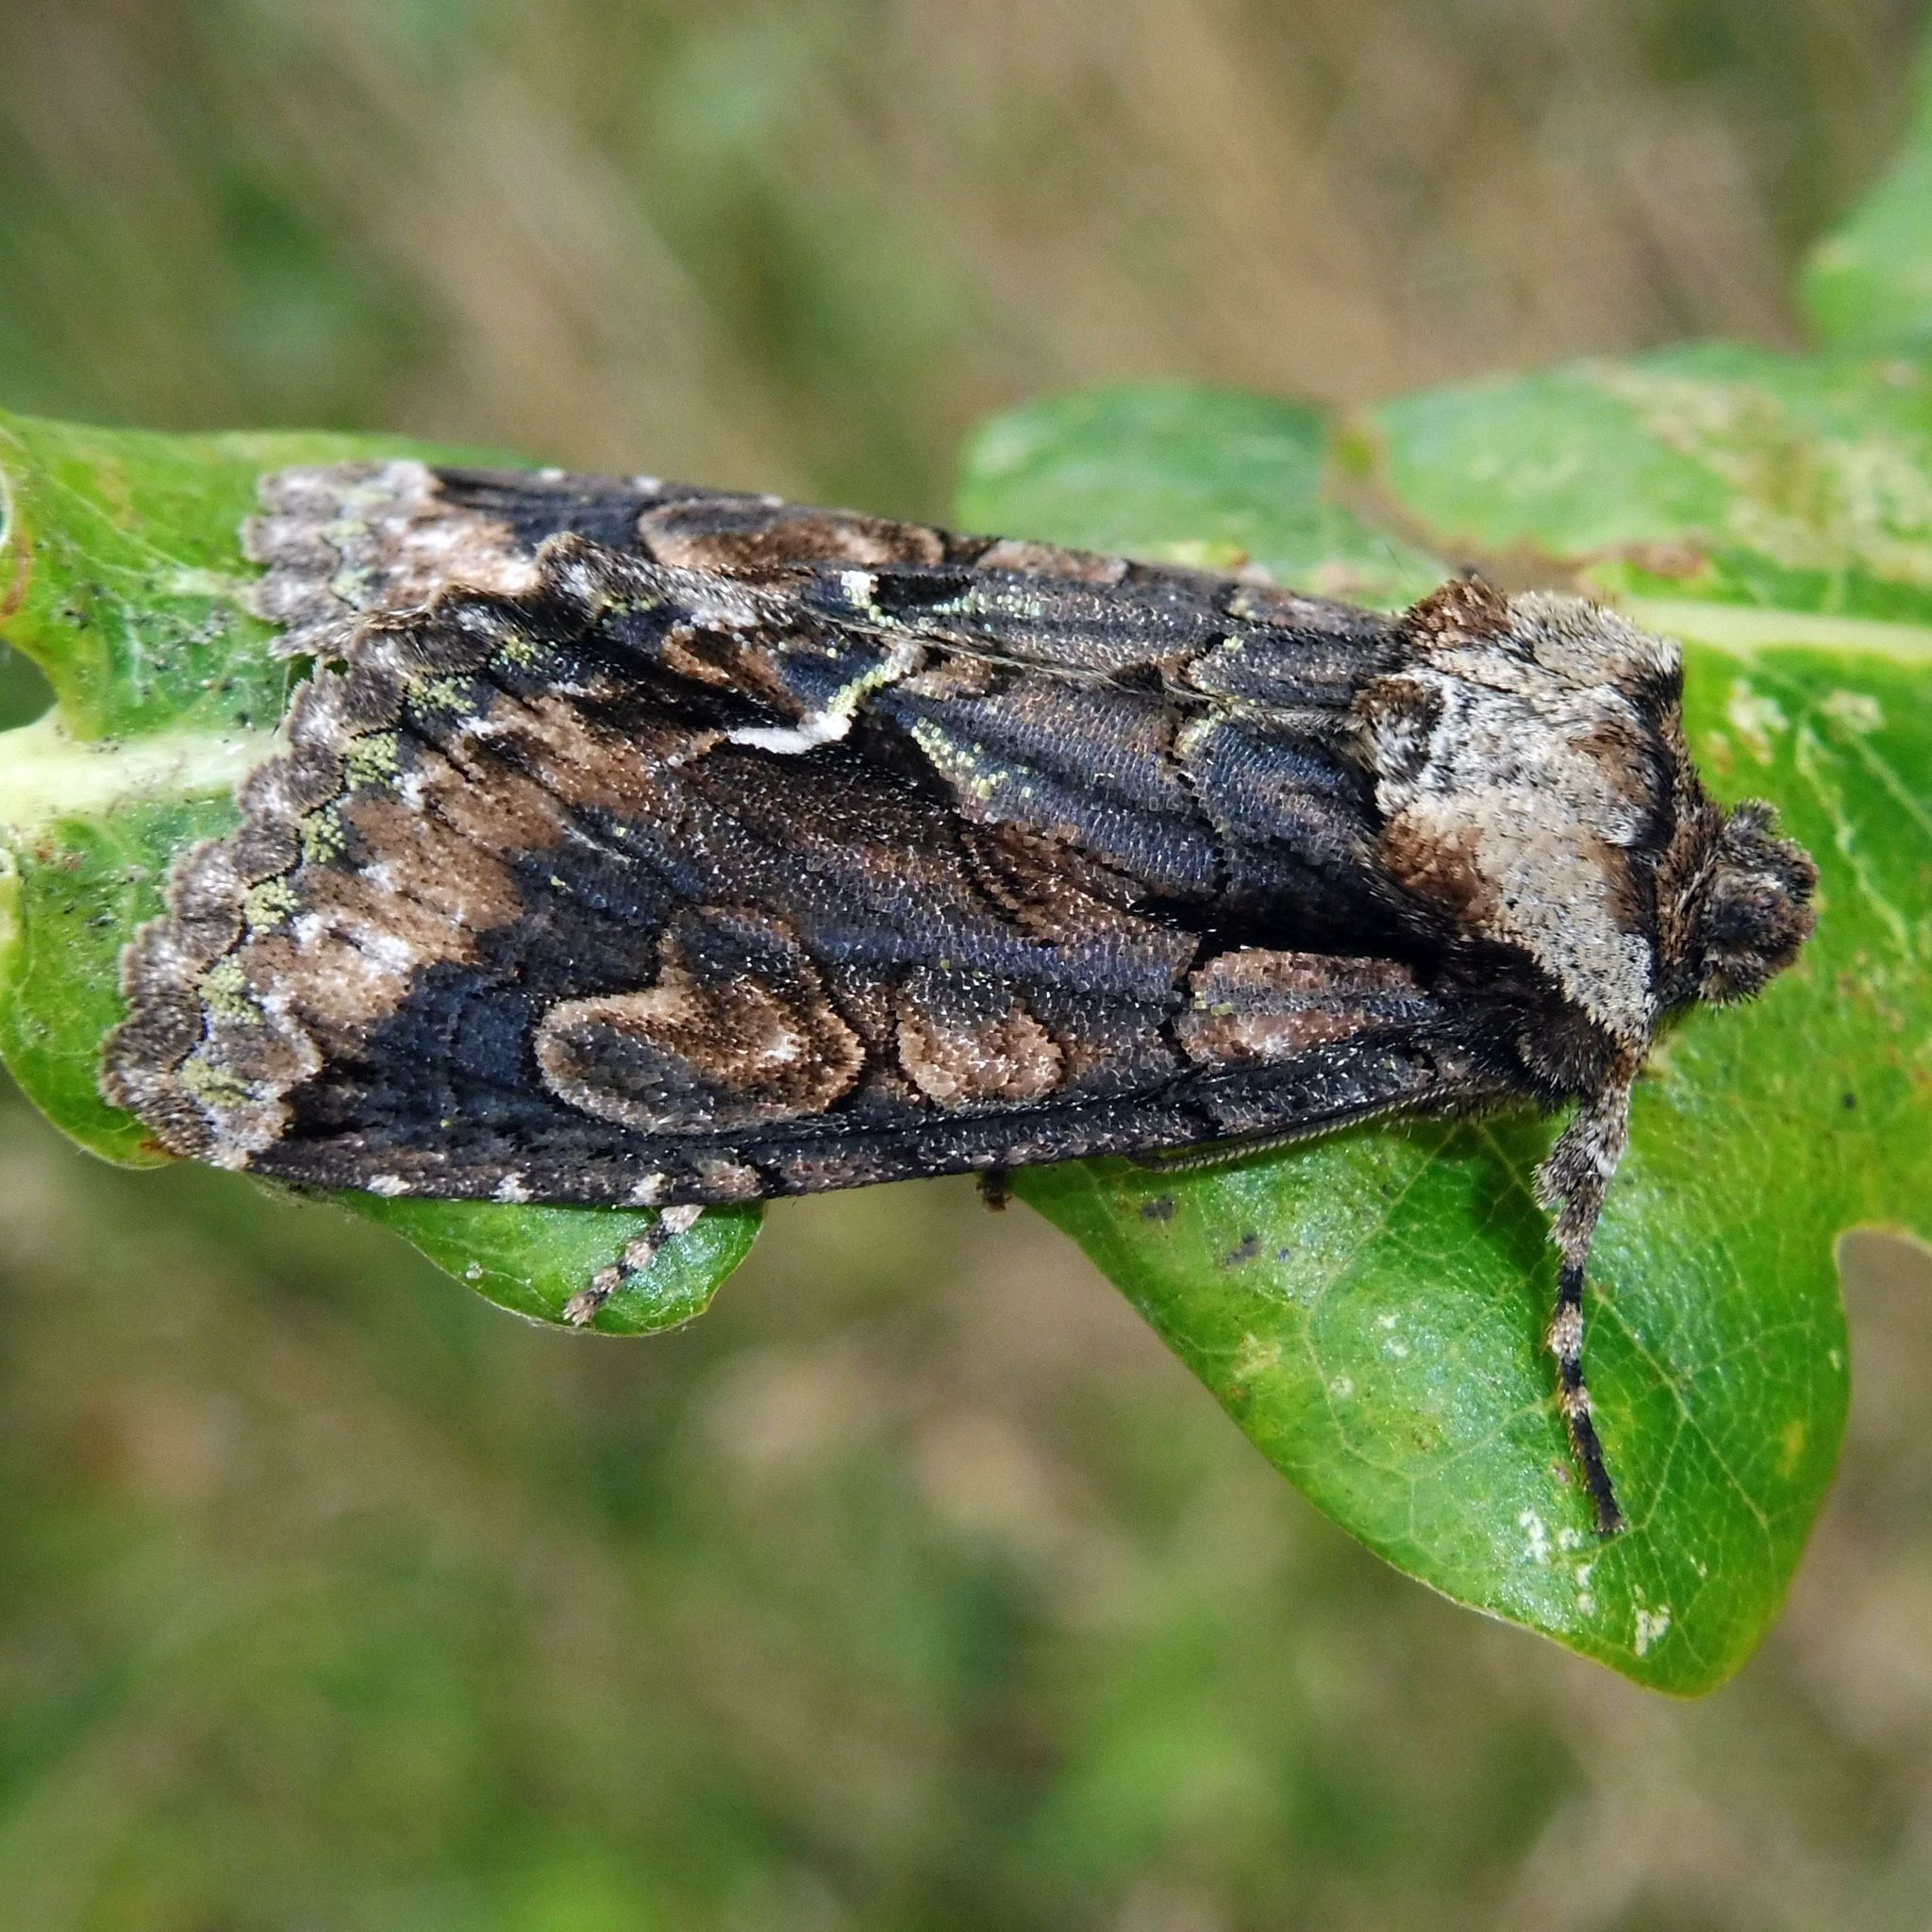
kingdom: Animalia
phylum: Arthropoda
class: Insecta
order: Lepidoptera
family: Noctuidae
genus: Allophyes
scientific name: Allophyes oxyacanthae
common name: Green-brindled crescent
